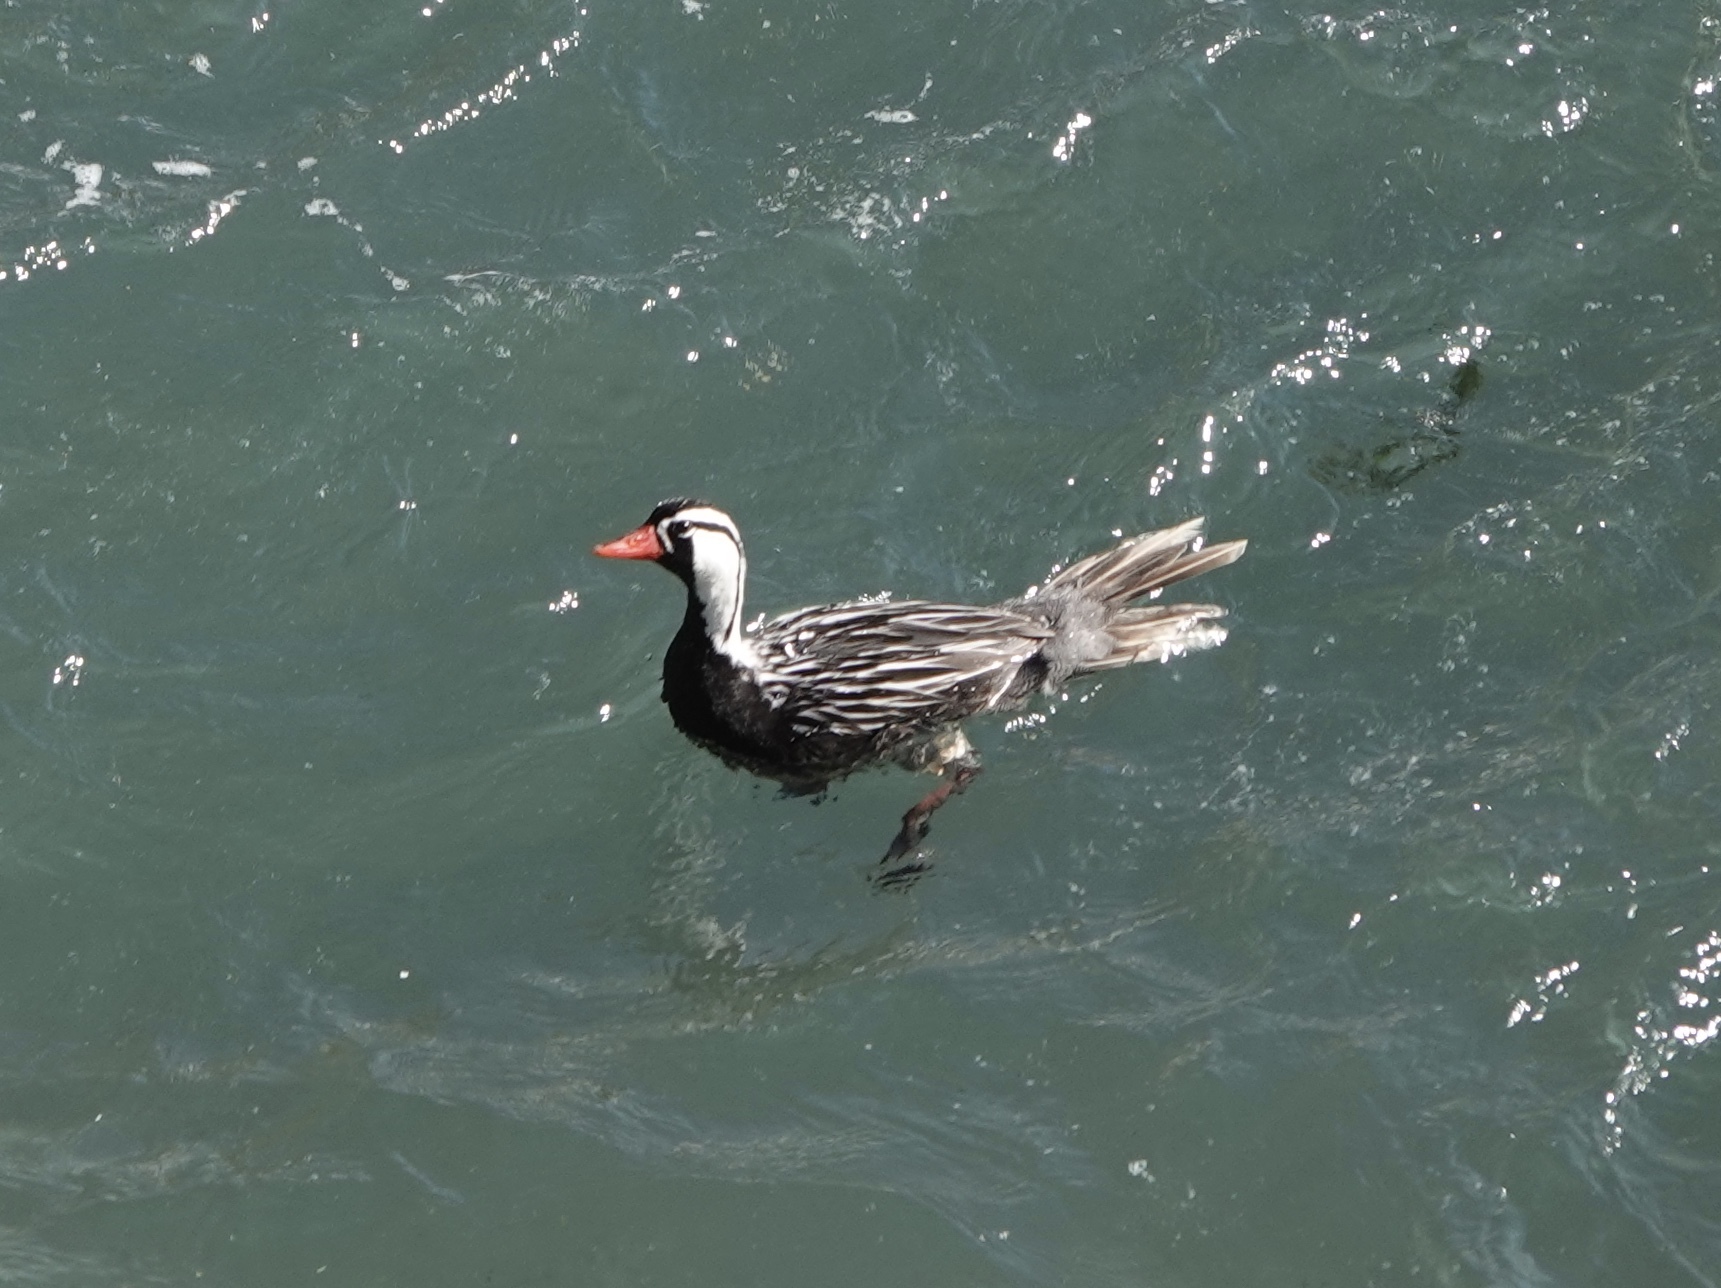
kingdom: Animalia
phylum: Chordata
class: Aves
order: Anseriformes
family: Anatidae
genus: Merganetta
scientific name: Merganetta armata
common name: Torrent duck
